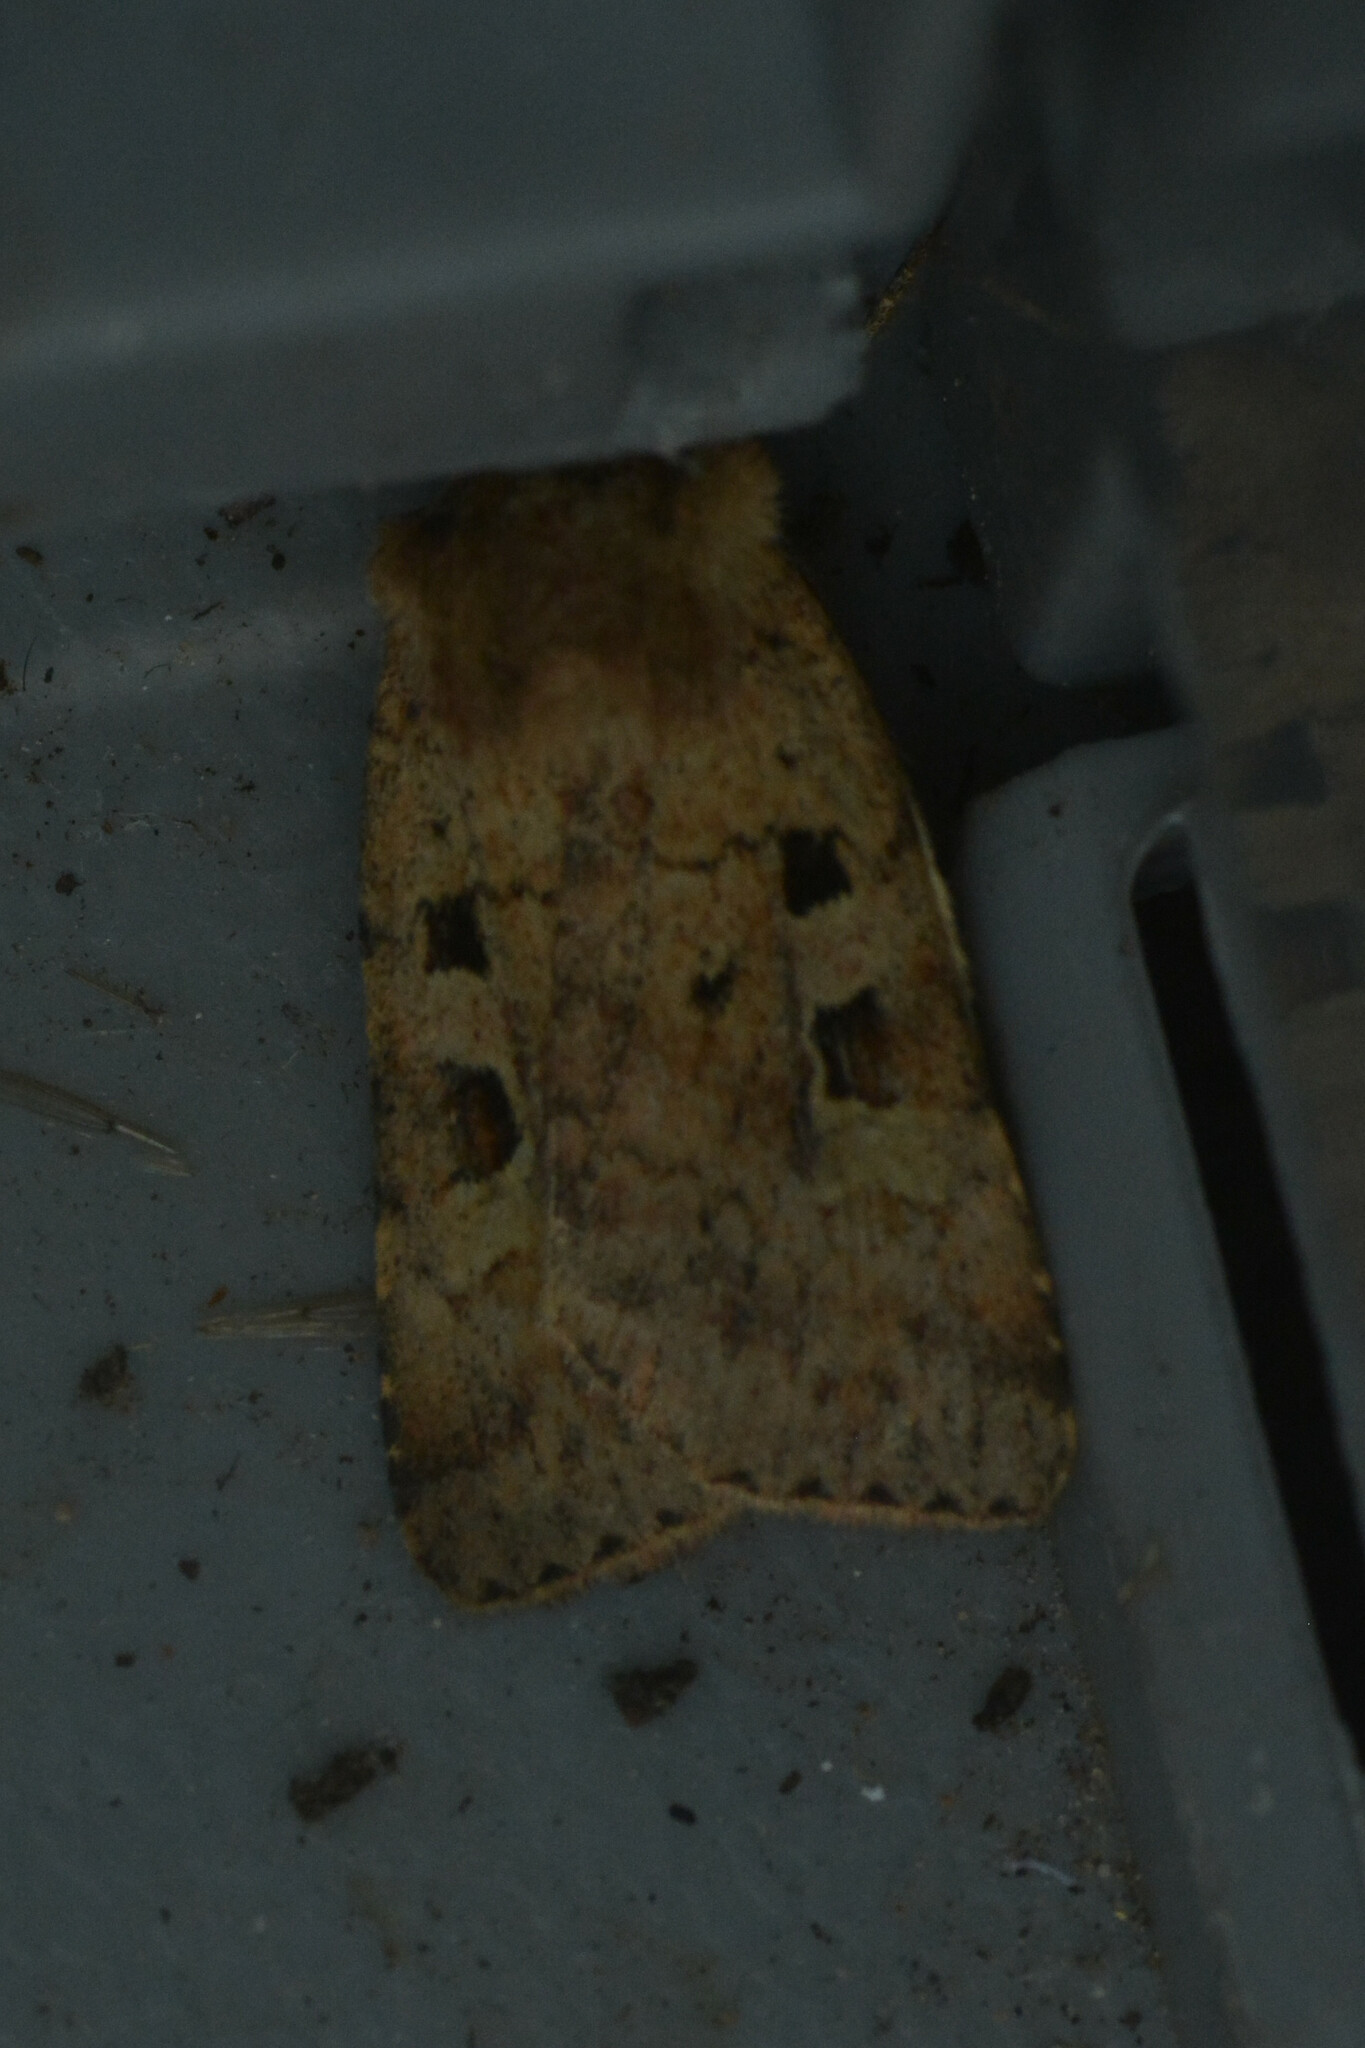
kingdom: Animalia
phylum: Arthropoda
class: Insecta
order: Lepidoptera
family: Noctuidae
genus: Diarsia
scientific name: Diarsia mendica
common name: Ingrailed clay
